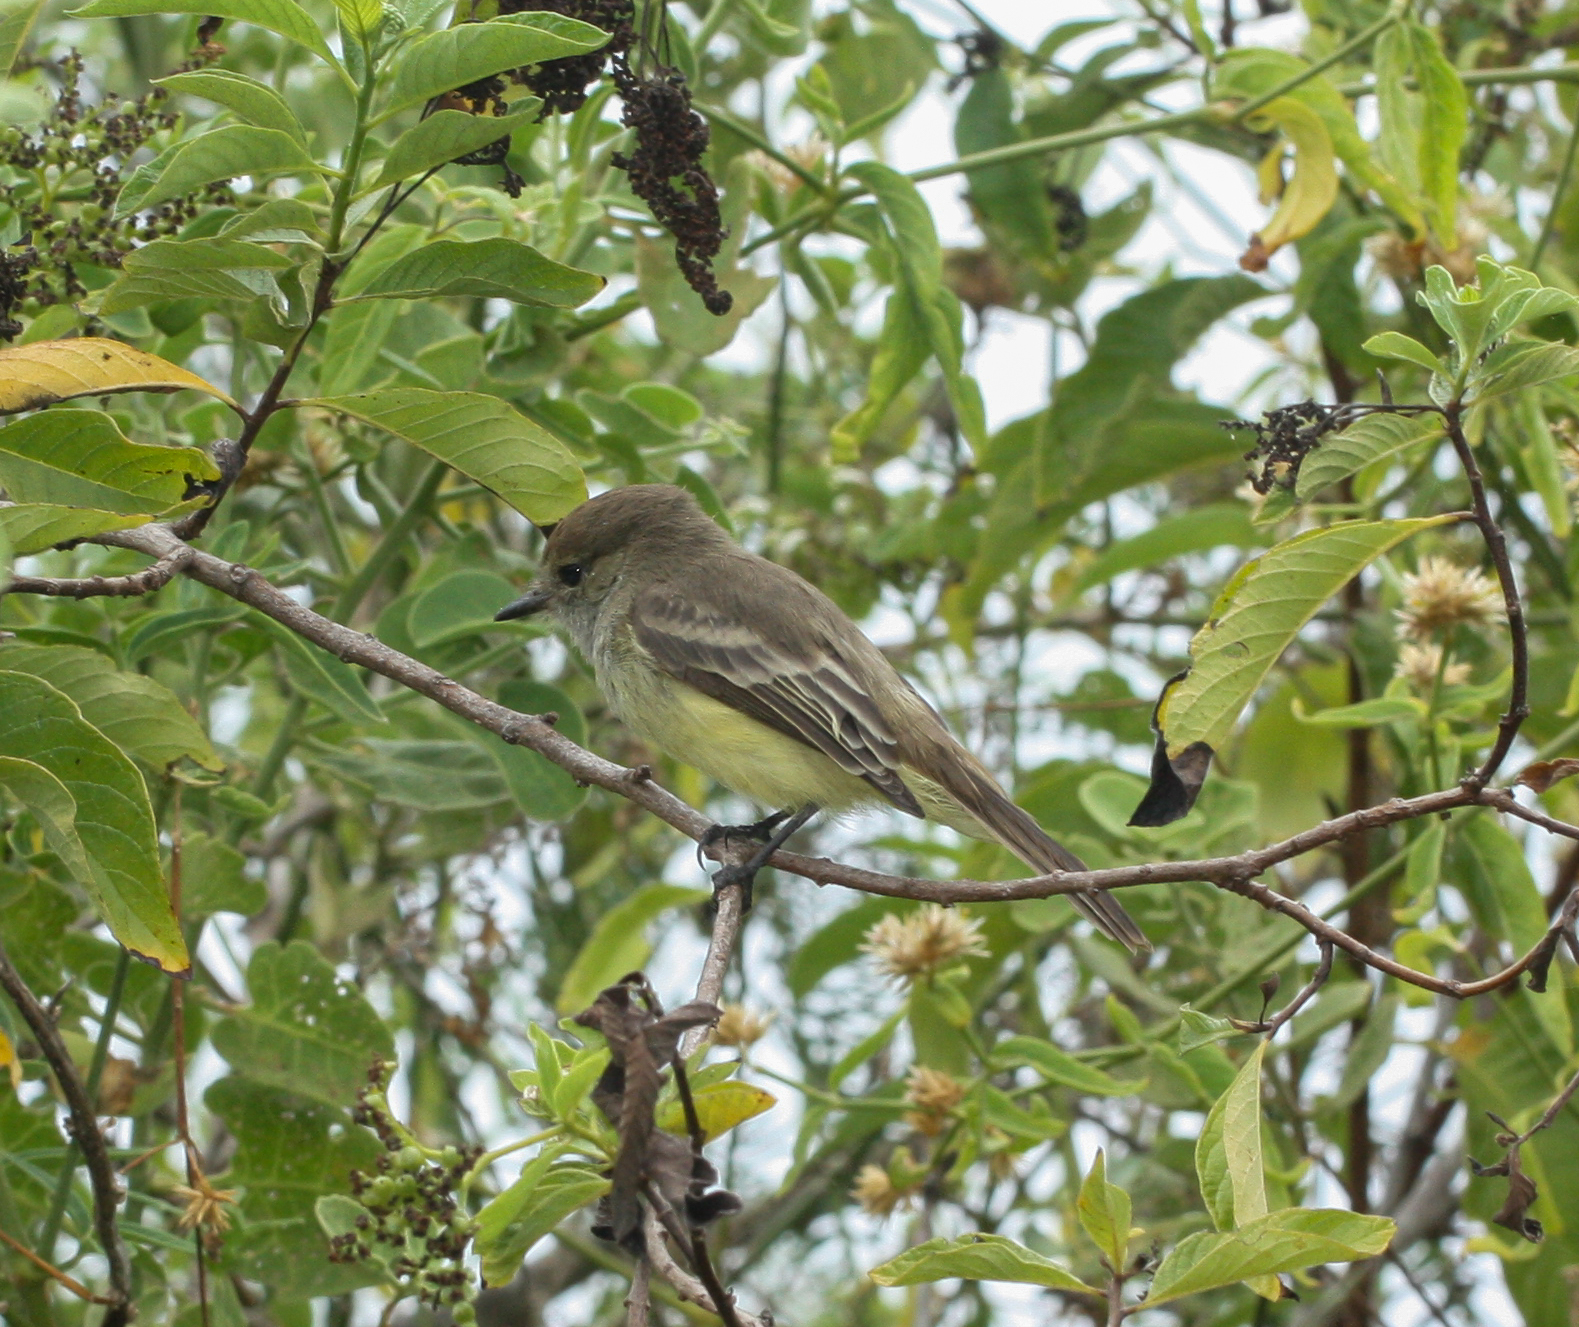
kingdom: Animalia
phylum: Chordata
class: Aves
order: Passeriformes
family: Tyrannidae
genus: Myiarchus
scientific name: Myiarchus magnirostris
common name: Galapagos flycatcher
